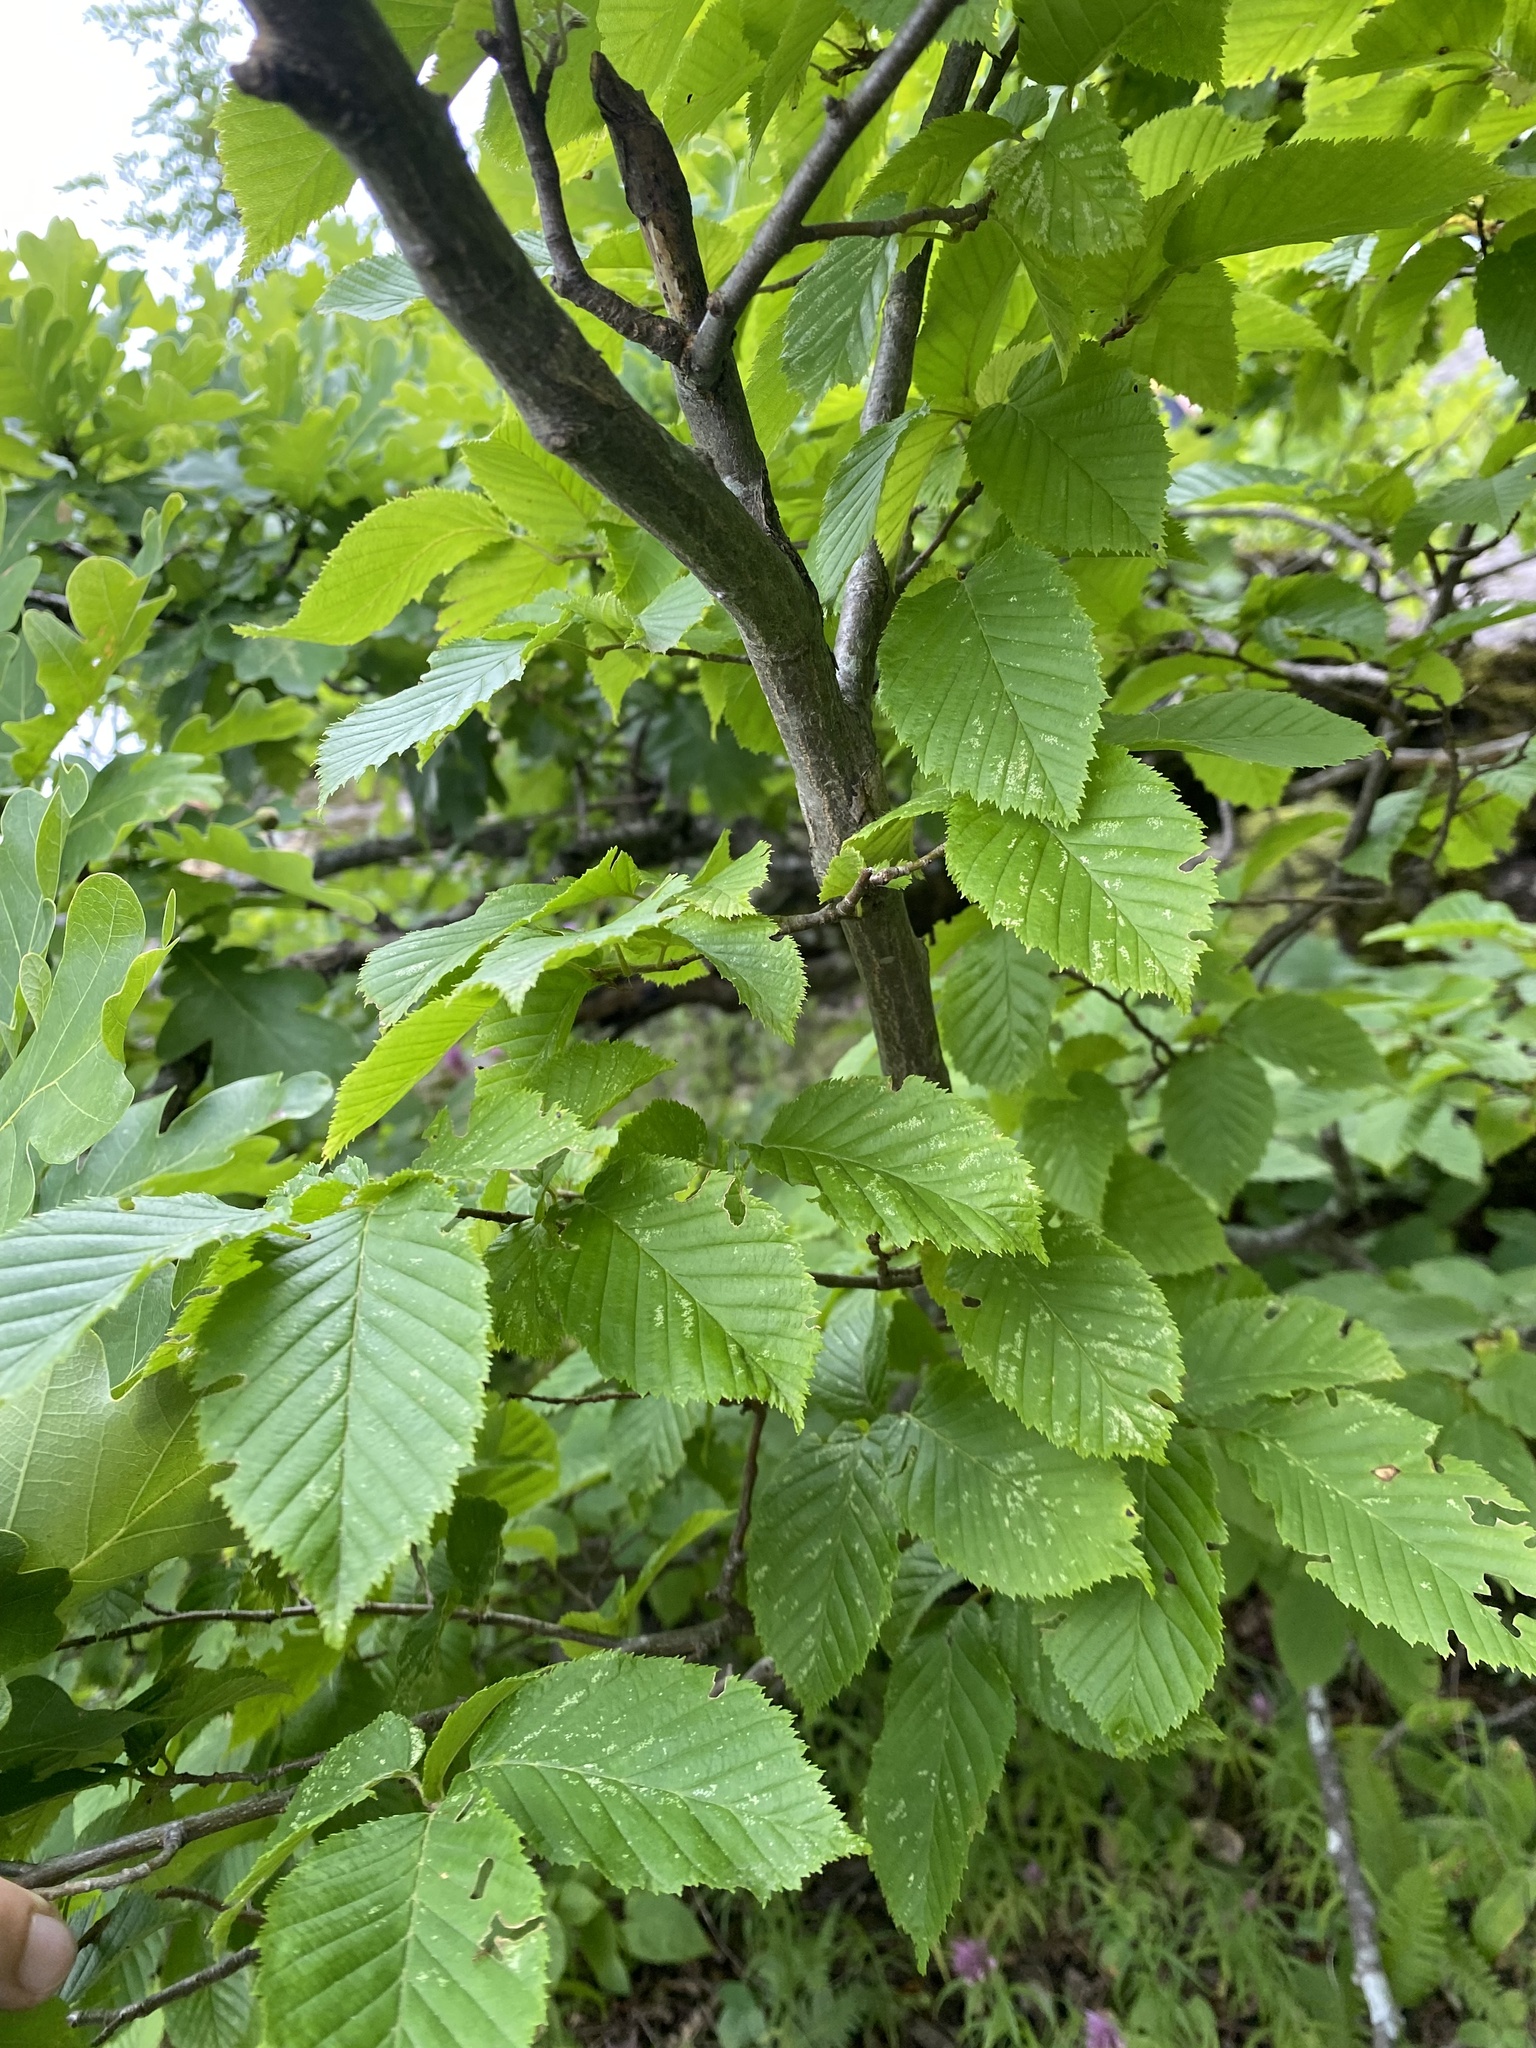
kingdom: Plantae
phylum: Tracheophyta
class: Magnoliopsida
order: Fagales
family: Betulaceae
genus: Carpinus
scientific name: Carpinus betulus
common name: Hornbeam
